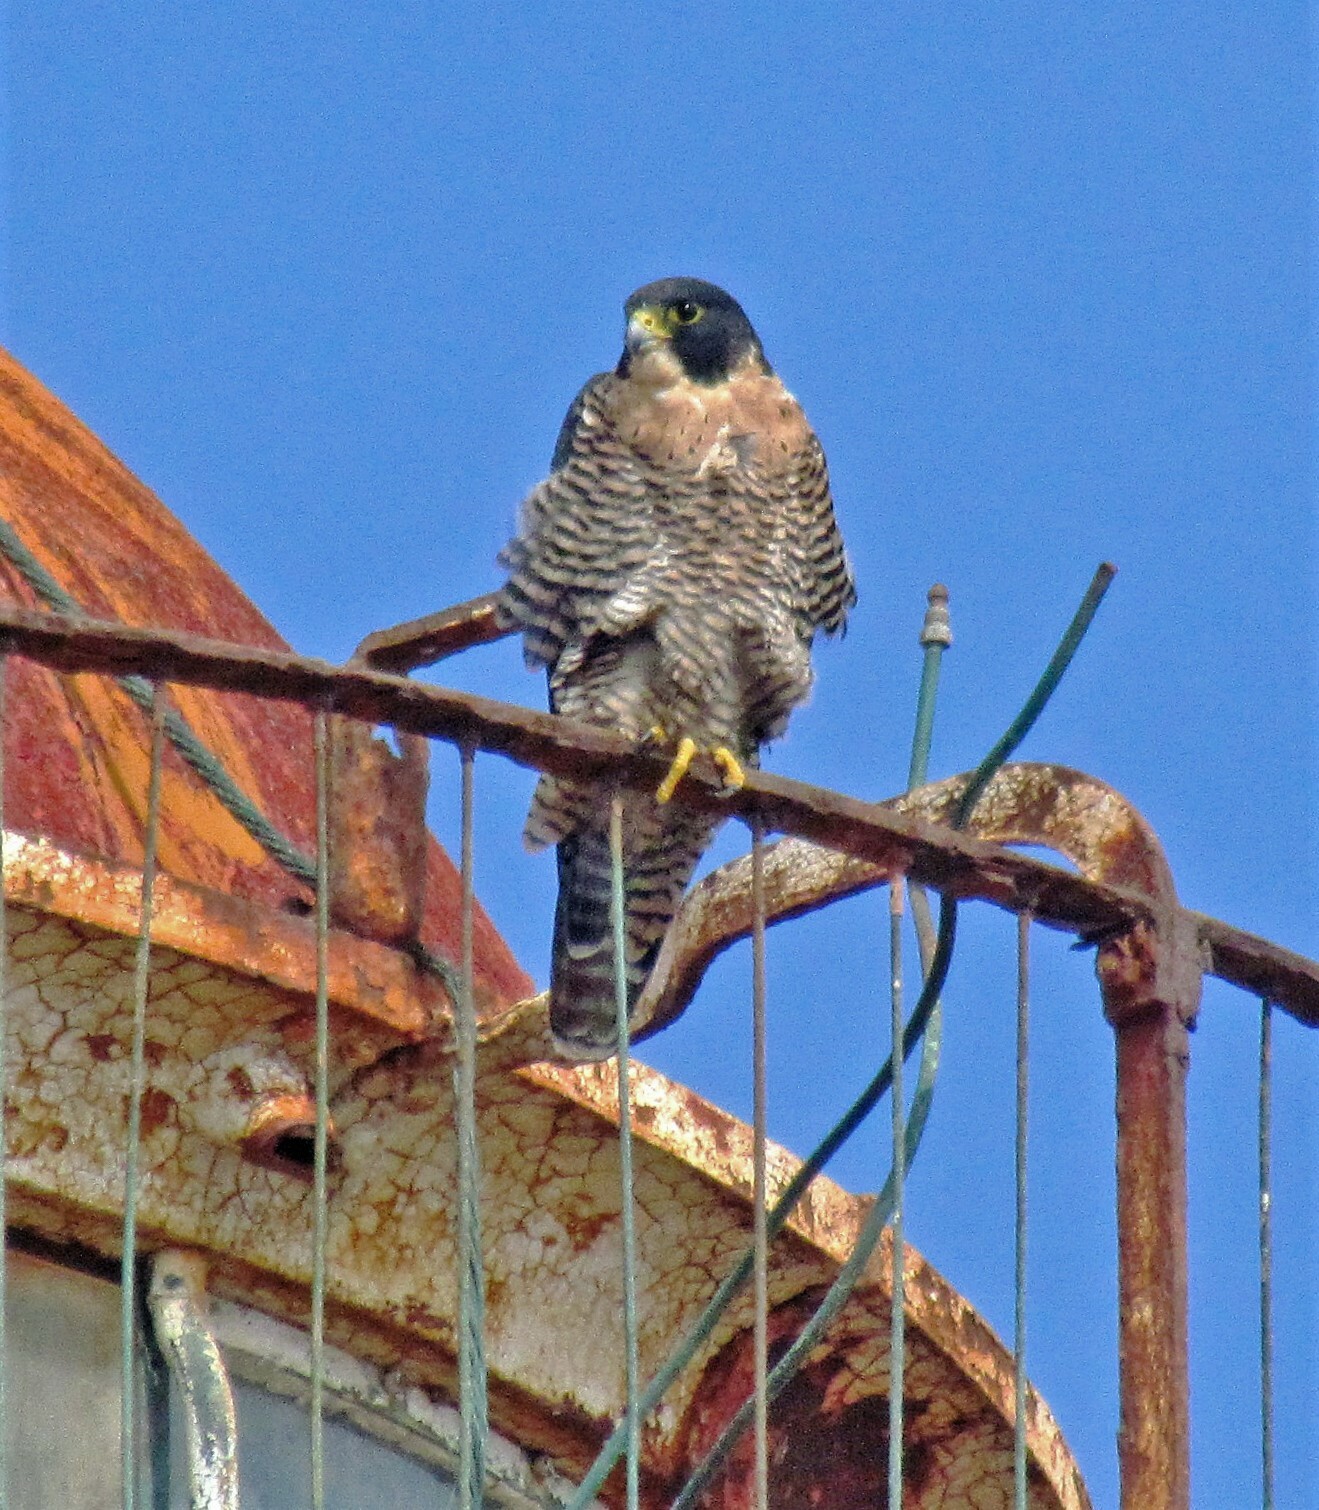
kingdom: Animalia
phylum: Chordata
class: Aves
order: Falconiformes
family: Falconidae
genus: Falco
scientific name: Falco peregrinus
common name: Peregrine falcon
